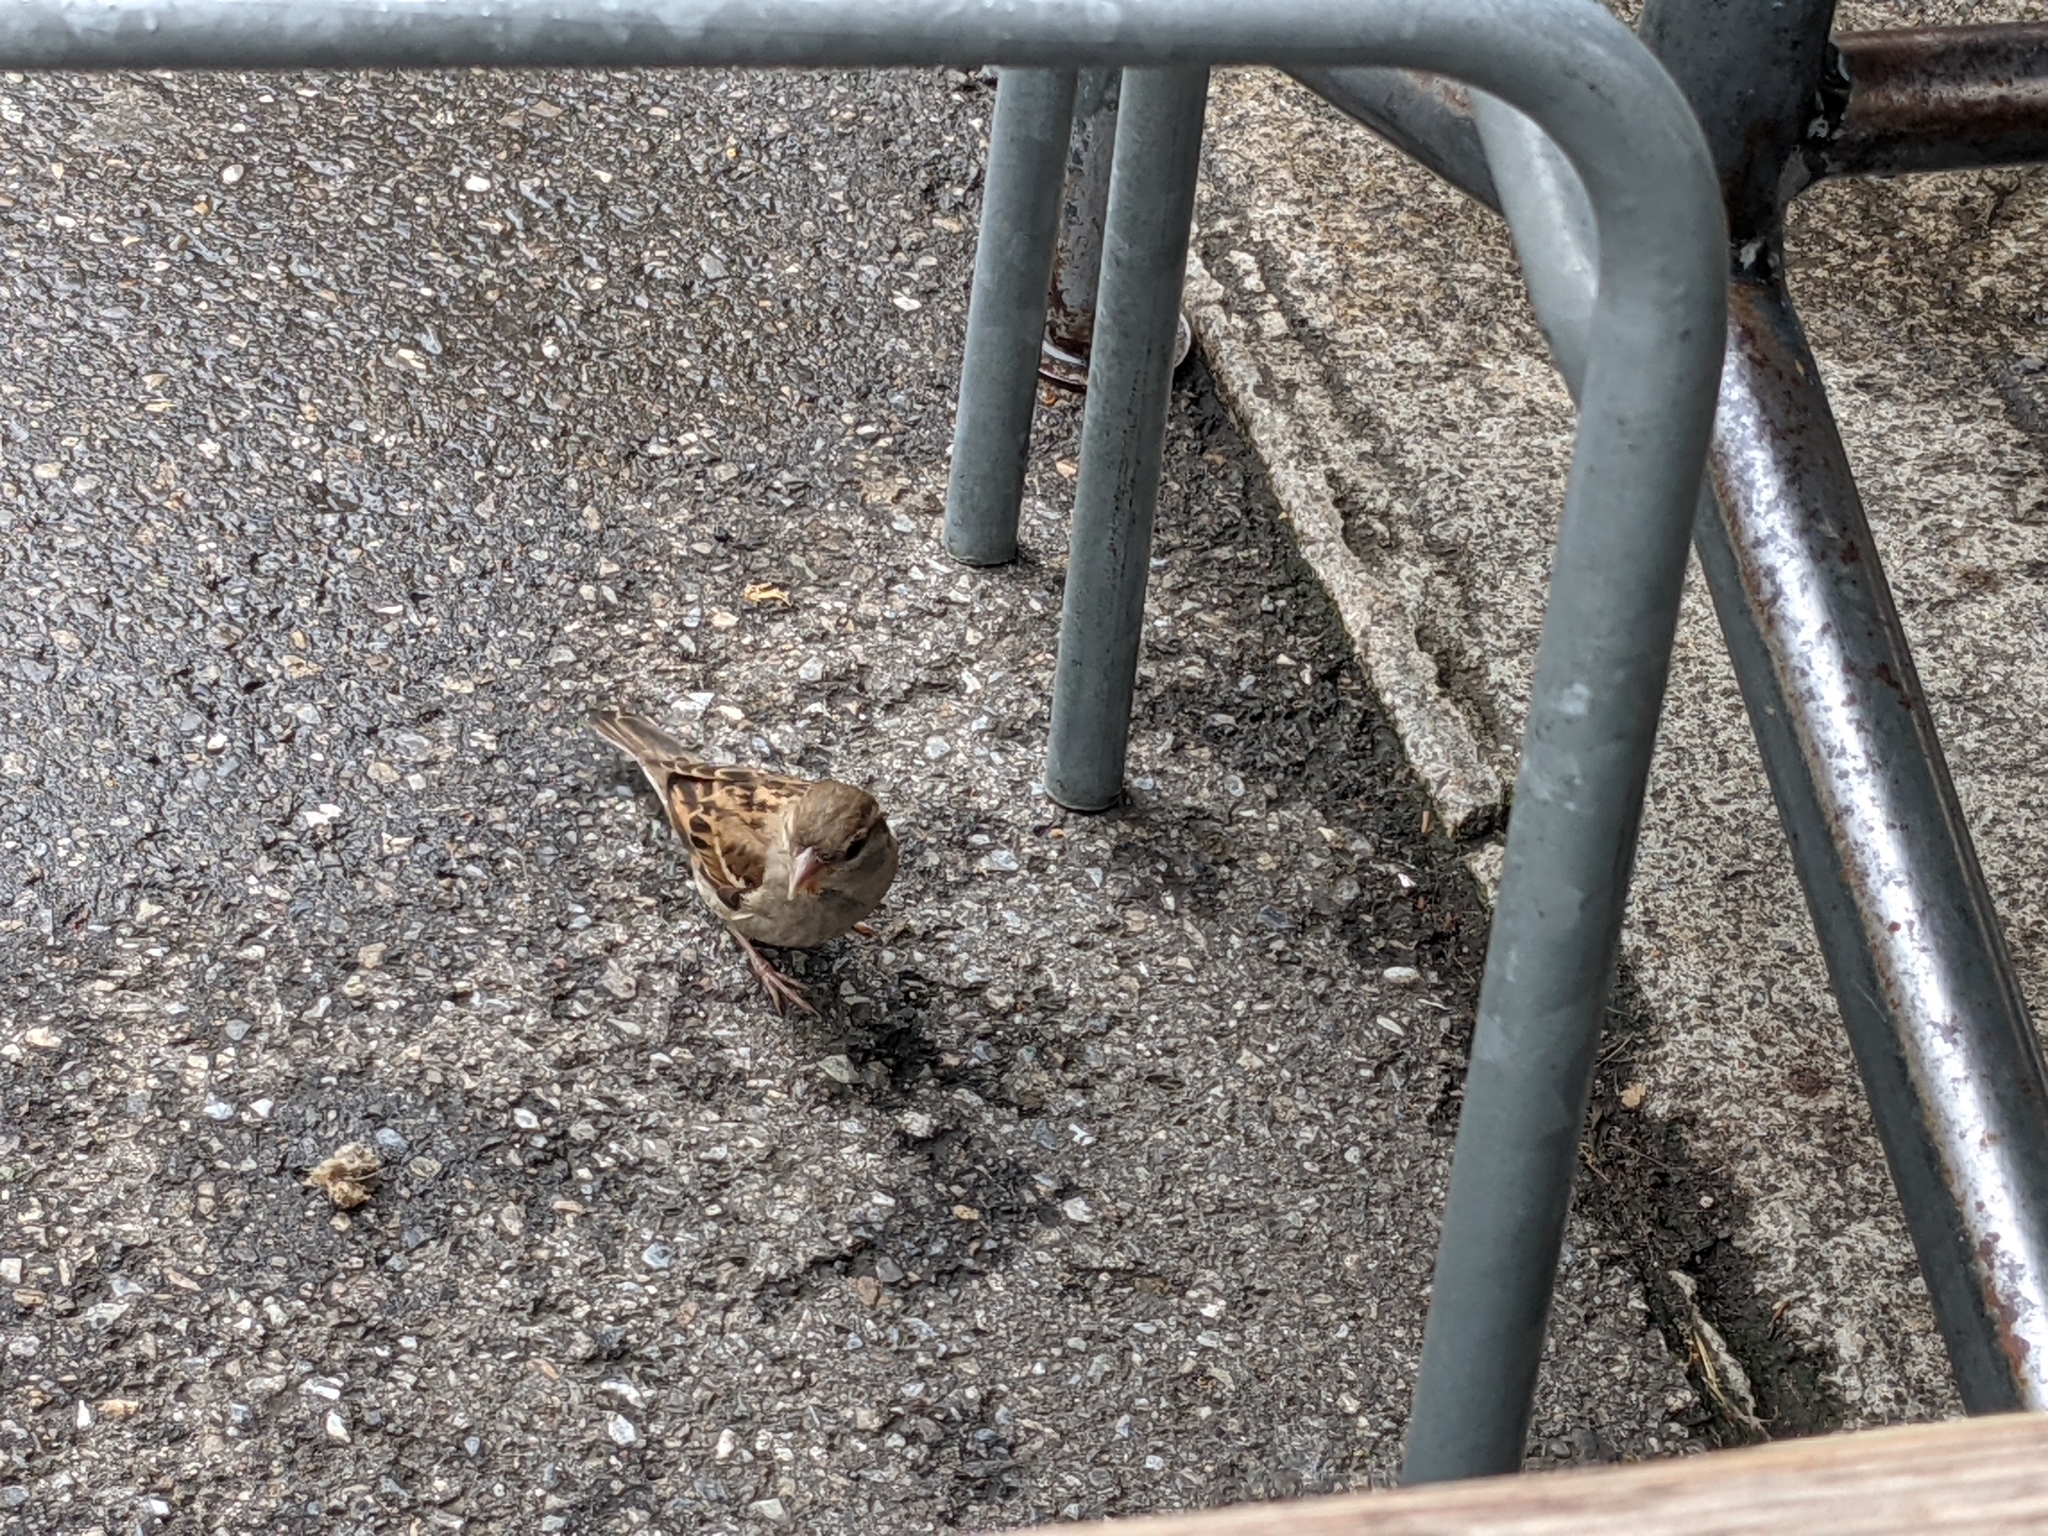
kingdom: Animalia
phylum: Chordata
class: Aves
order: Passeriformes
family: Passeridae
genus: Passer
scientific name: Passer domesticus
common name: House sparrow
